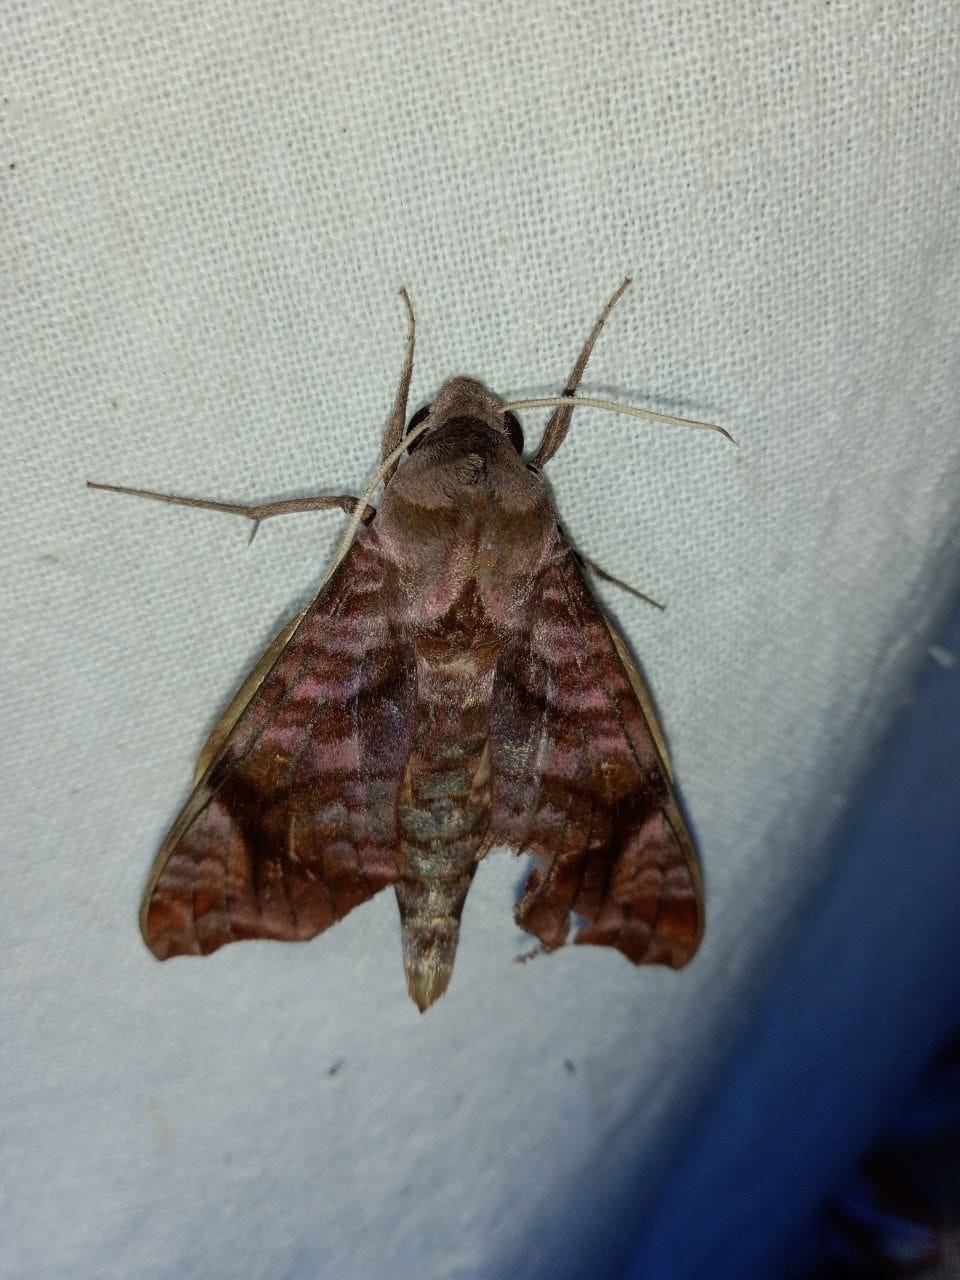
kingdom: Animalia
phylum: Arthropoda
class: Insecta
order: Lepidoptera
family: Sphingidae
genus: Acosmeryx
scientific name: Acosmeryx anceus
